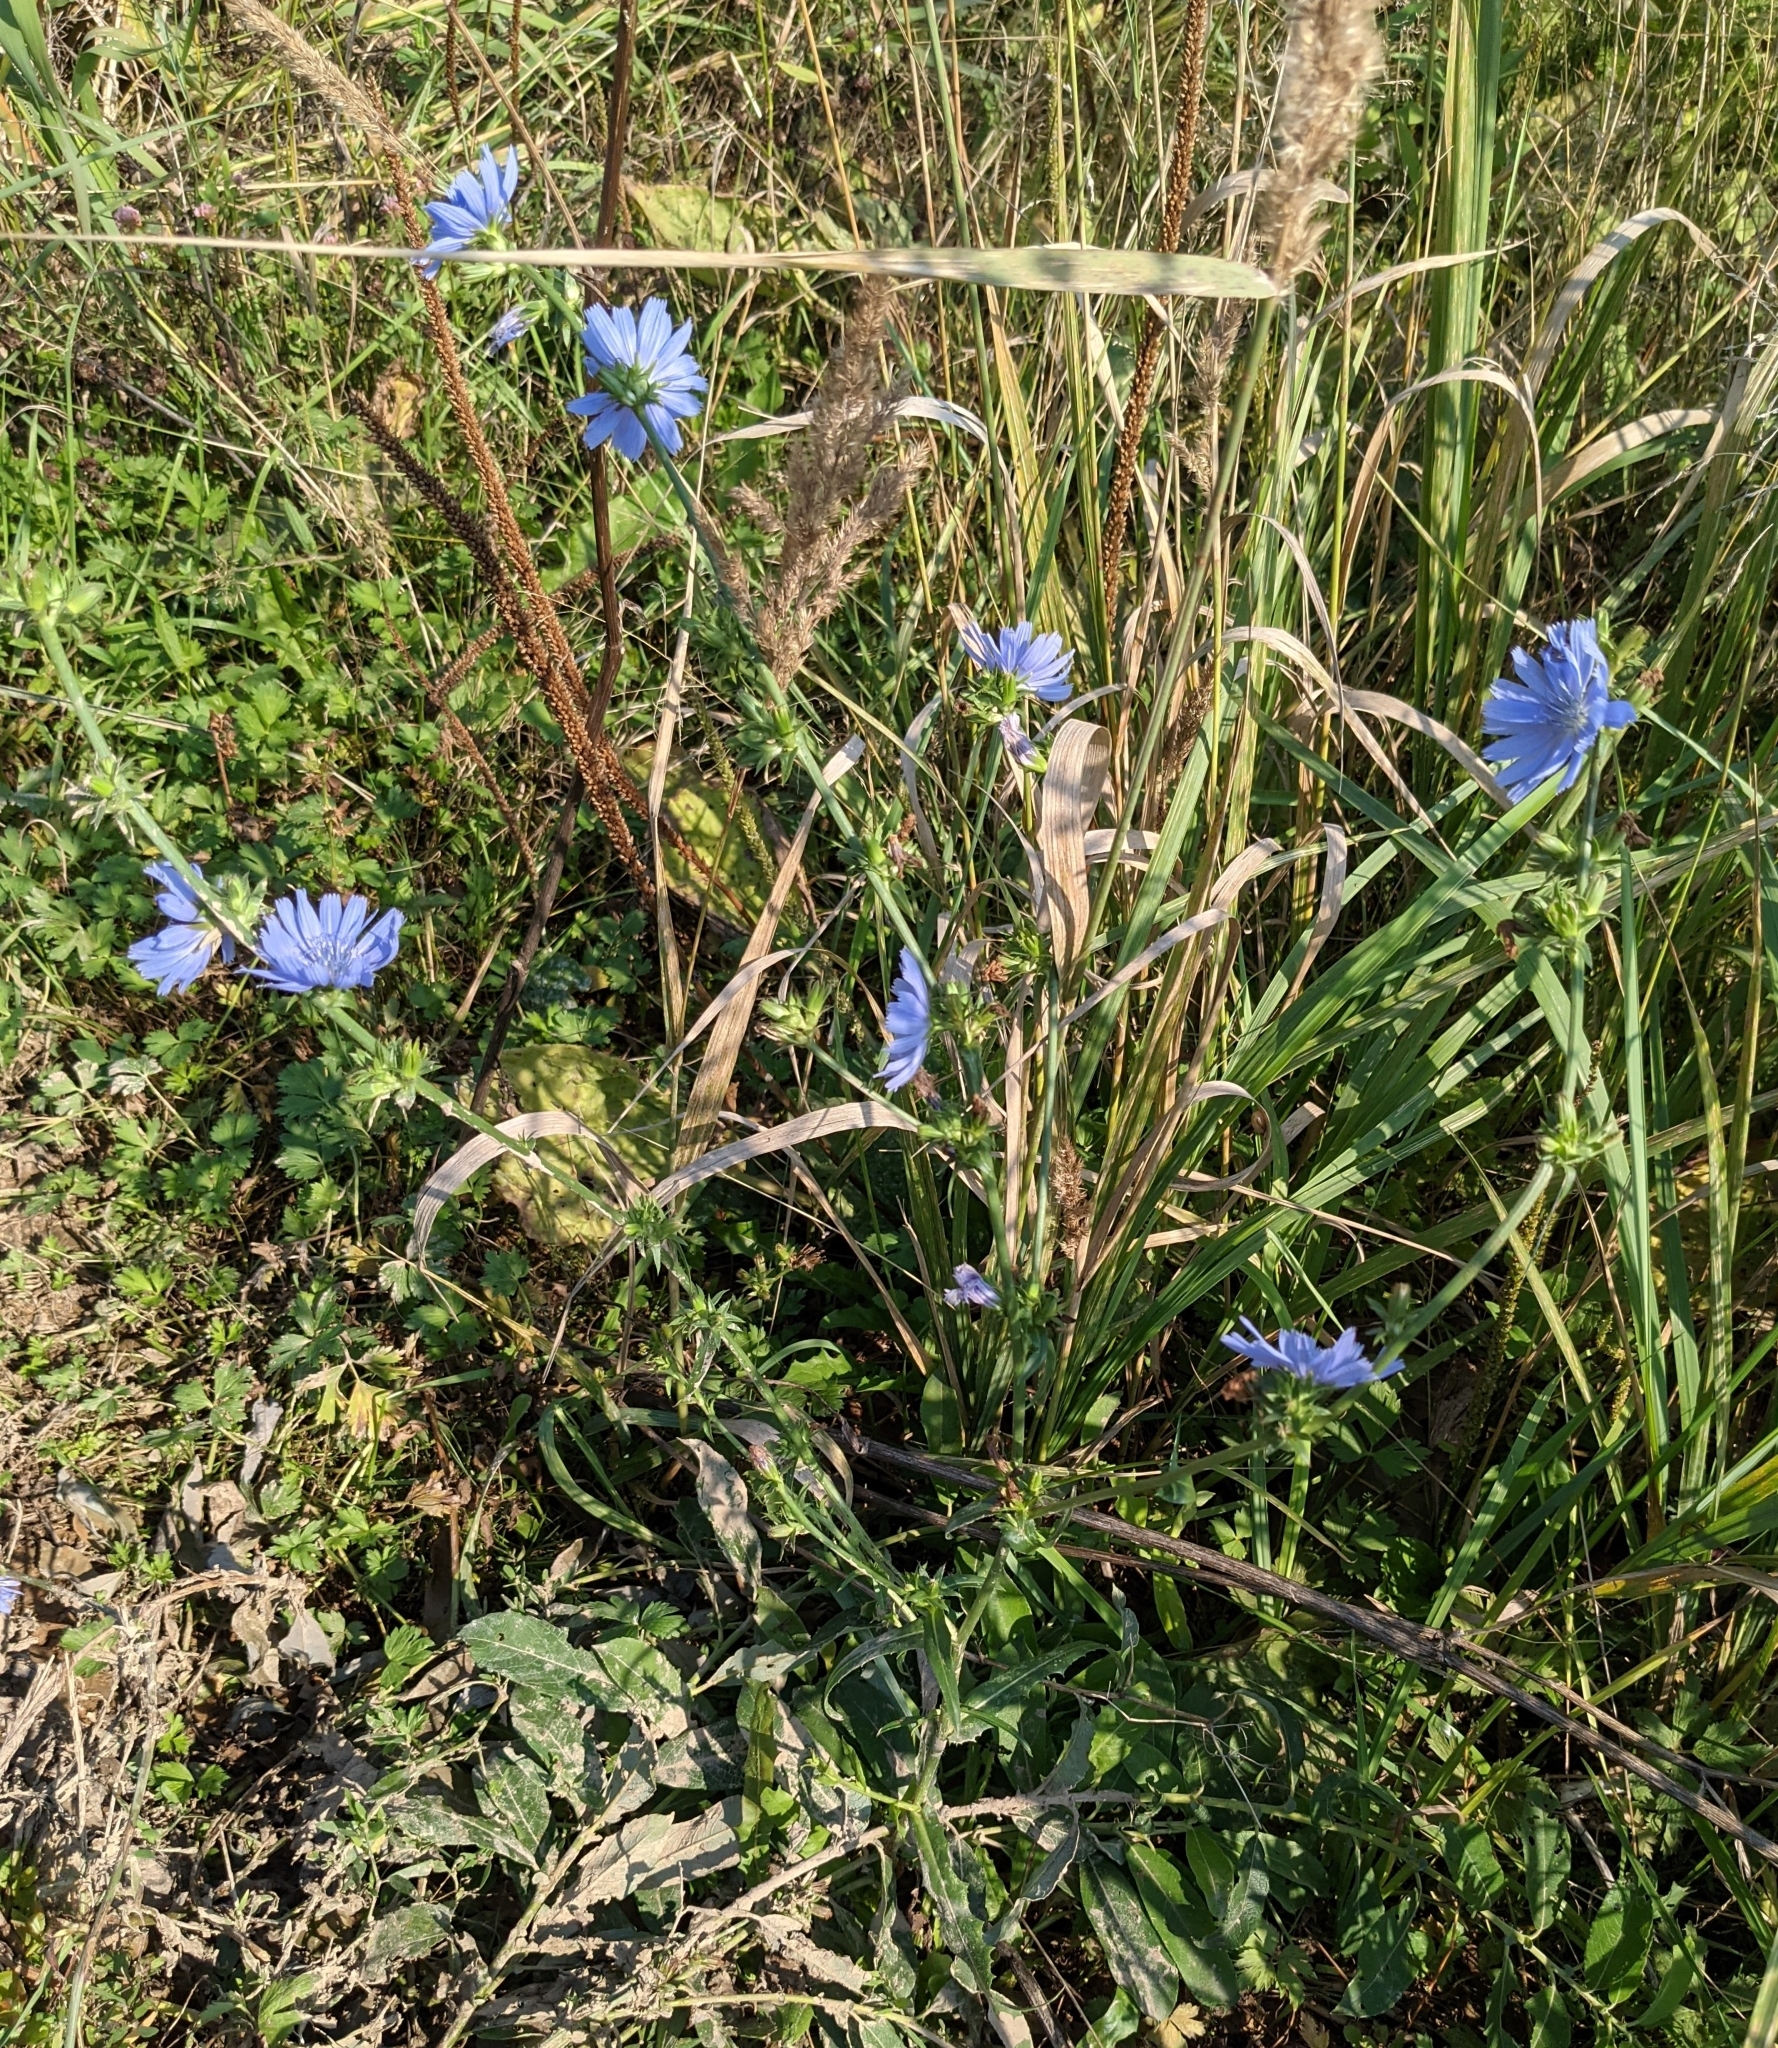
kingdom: Plantae
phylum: Tracheophyta
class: Magnoliopsida
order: Asterales
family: Asteraceae
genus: Cichorium
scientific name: Cichorium intybus
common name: Chicory
